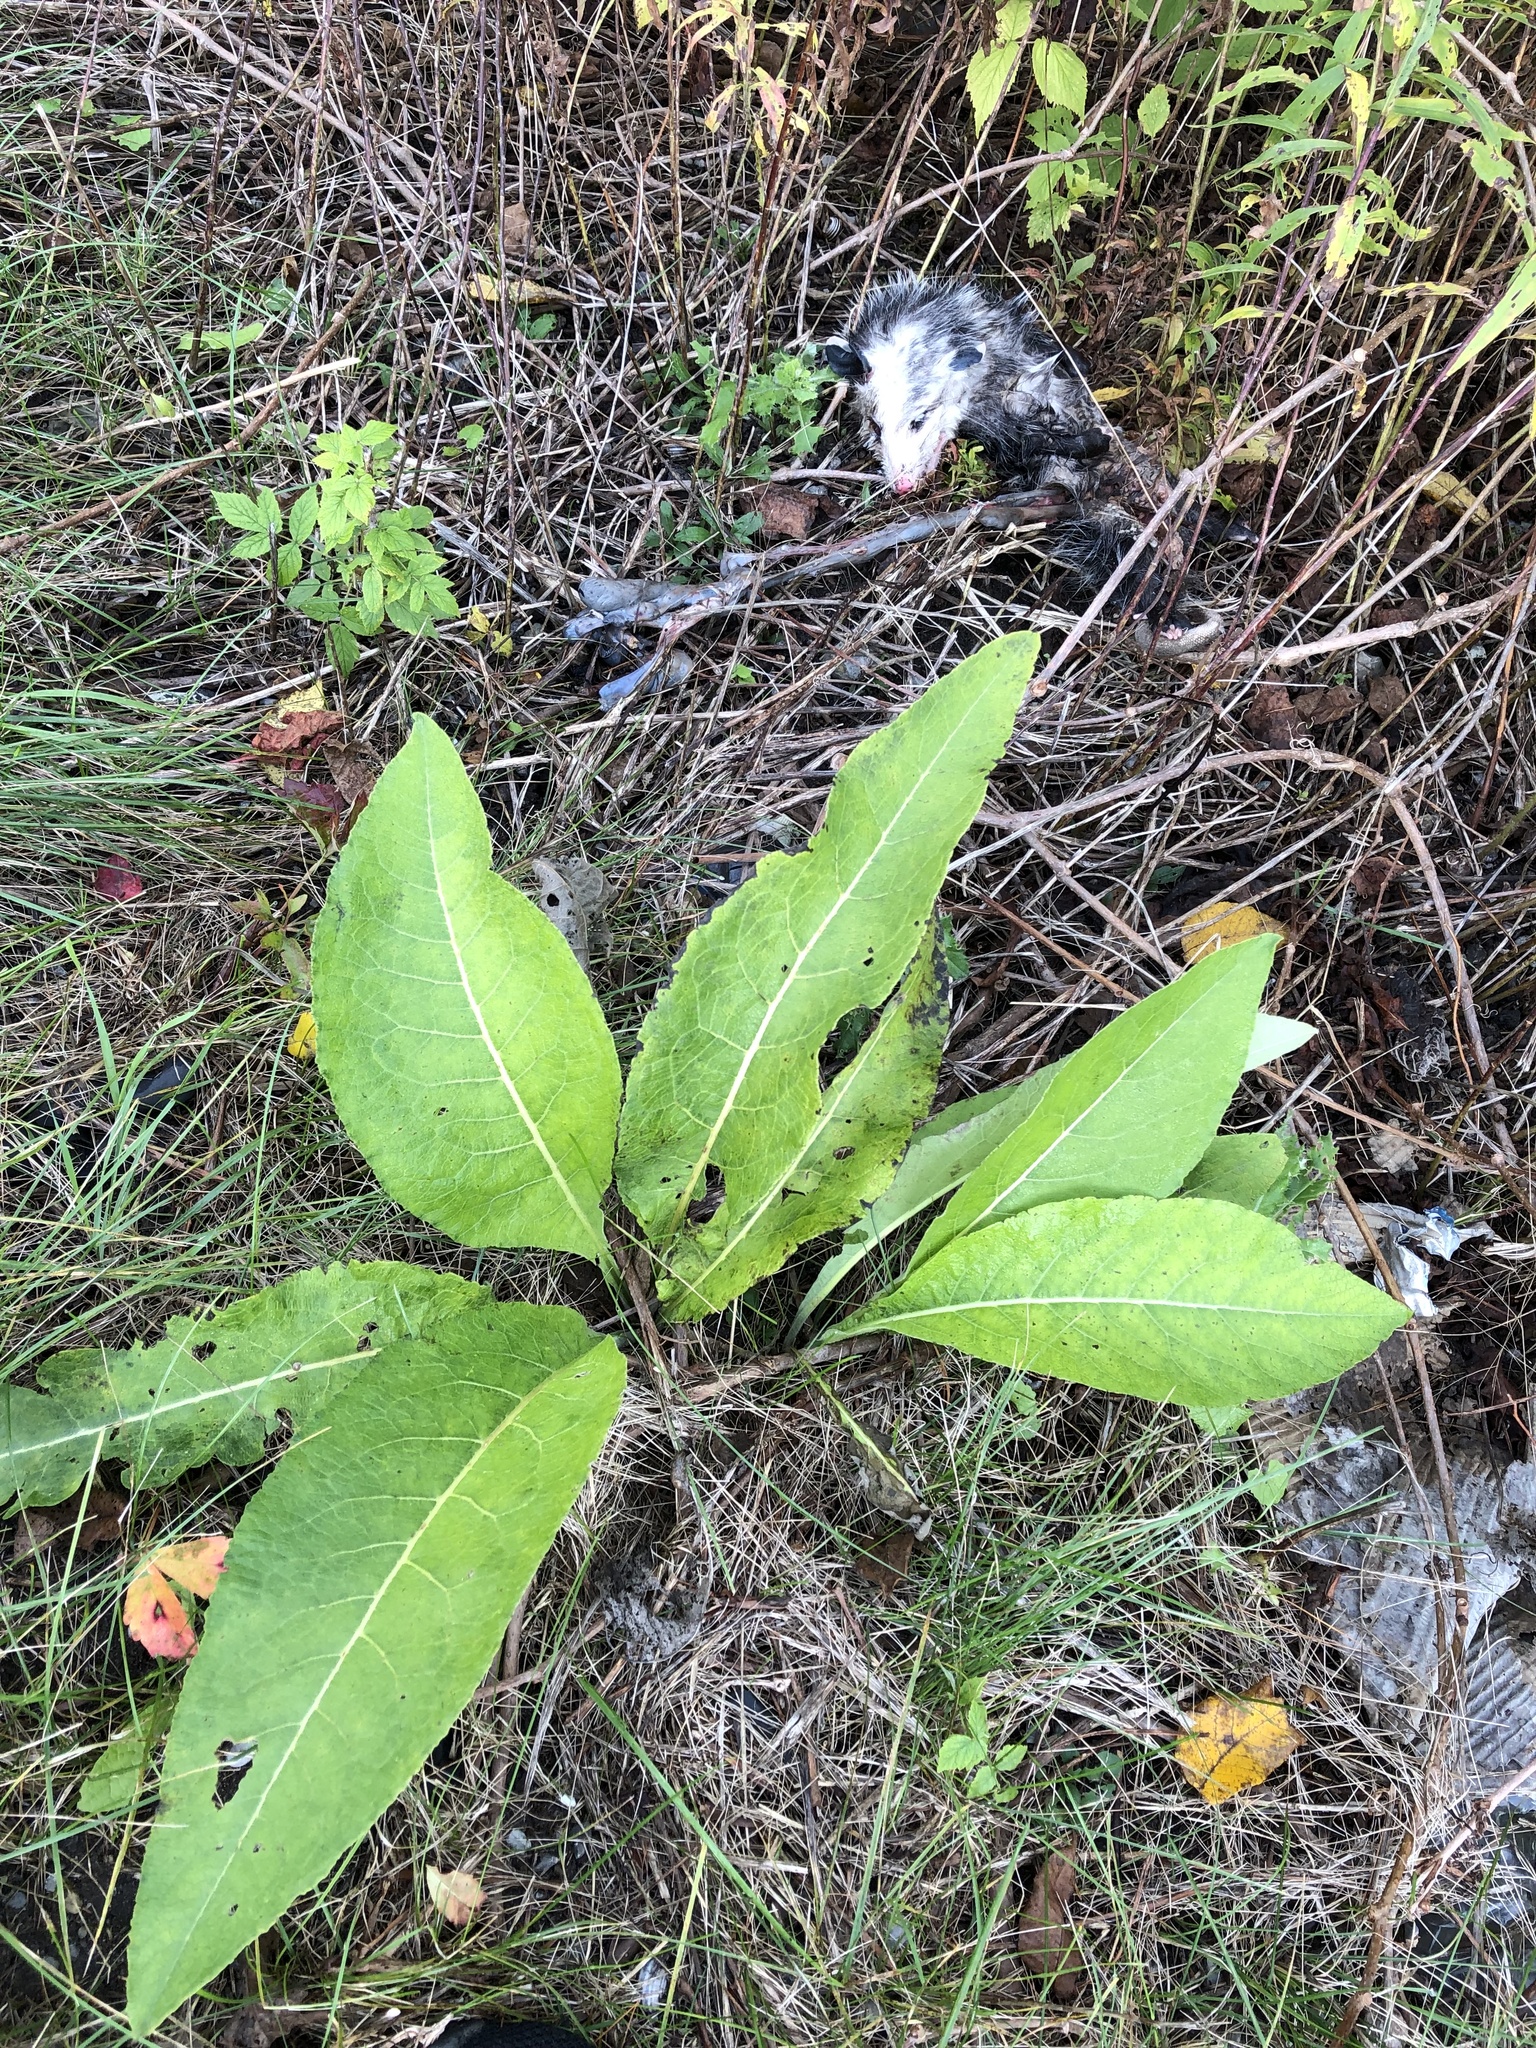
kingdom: Plantae
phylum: Tracheophyta
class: Magnoliopsida
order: Asterales
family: Asteraceae
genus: Inula
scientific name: Inula helenium
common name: Elecampane
